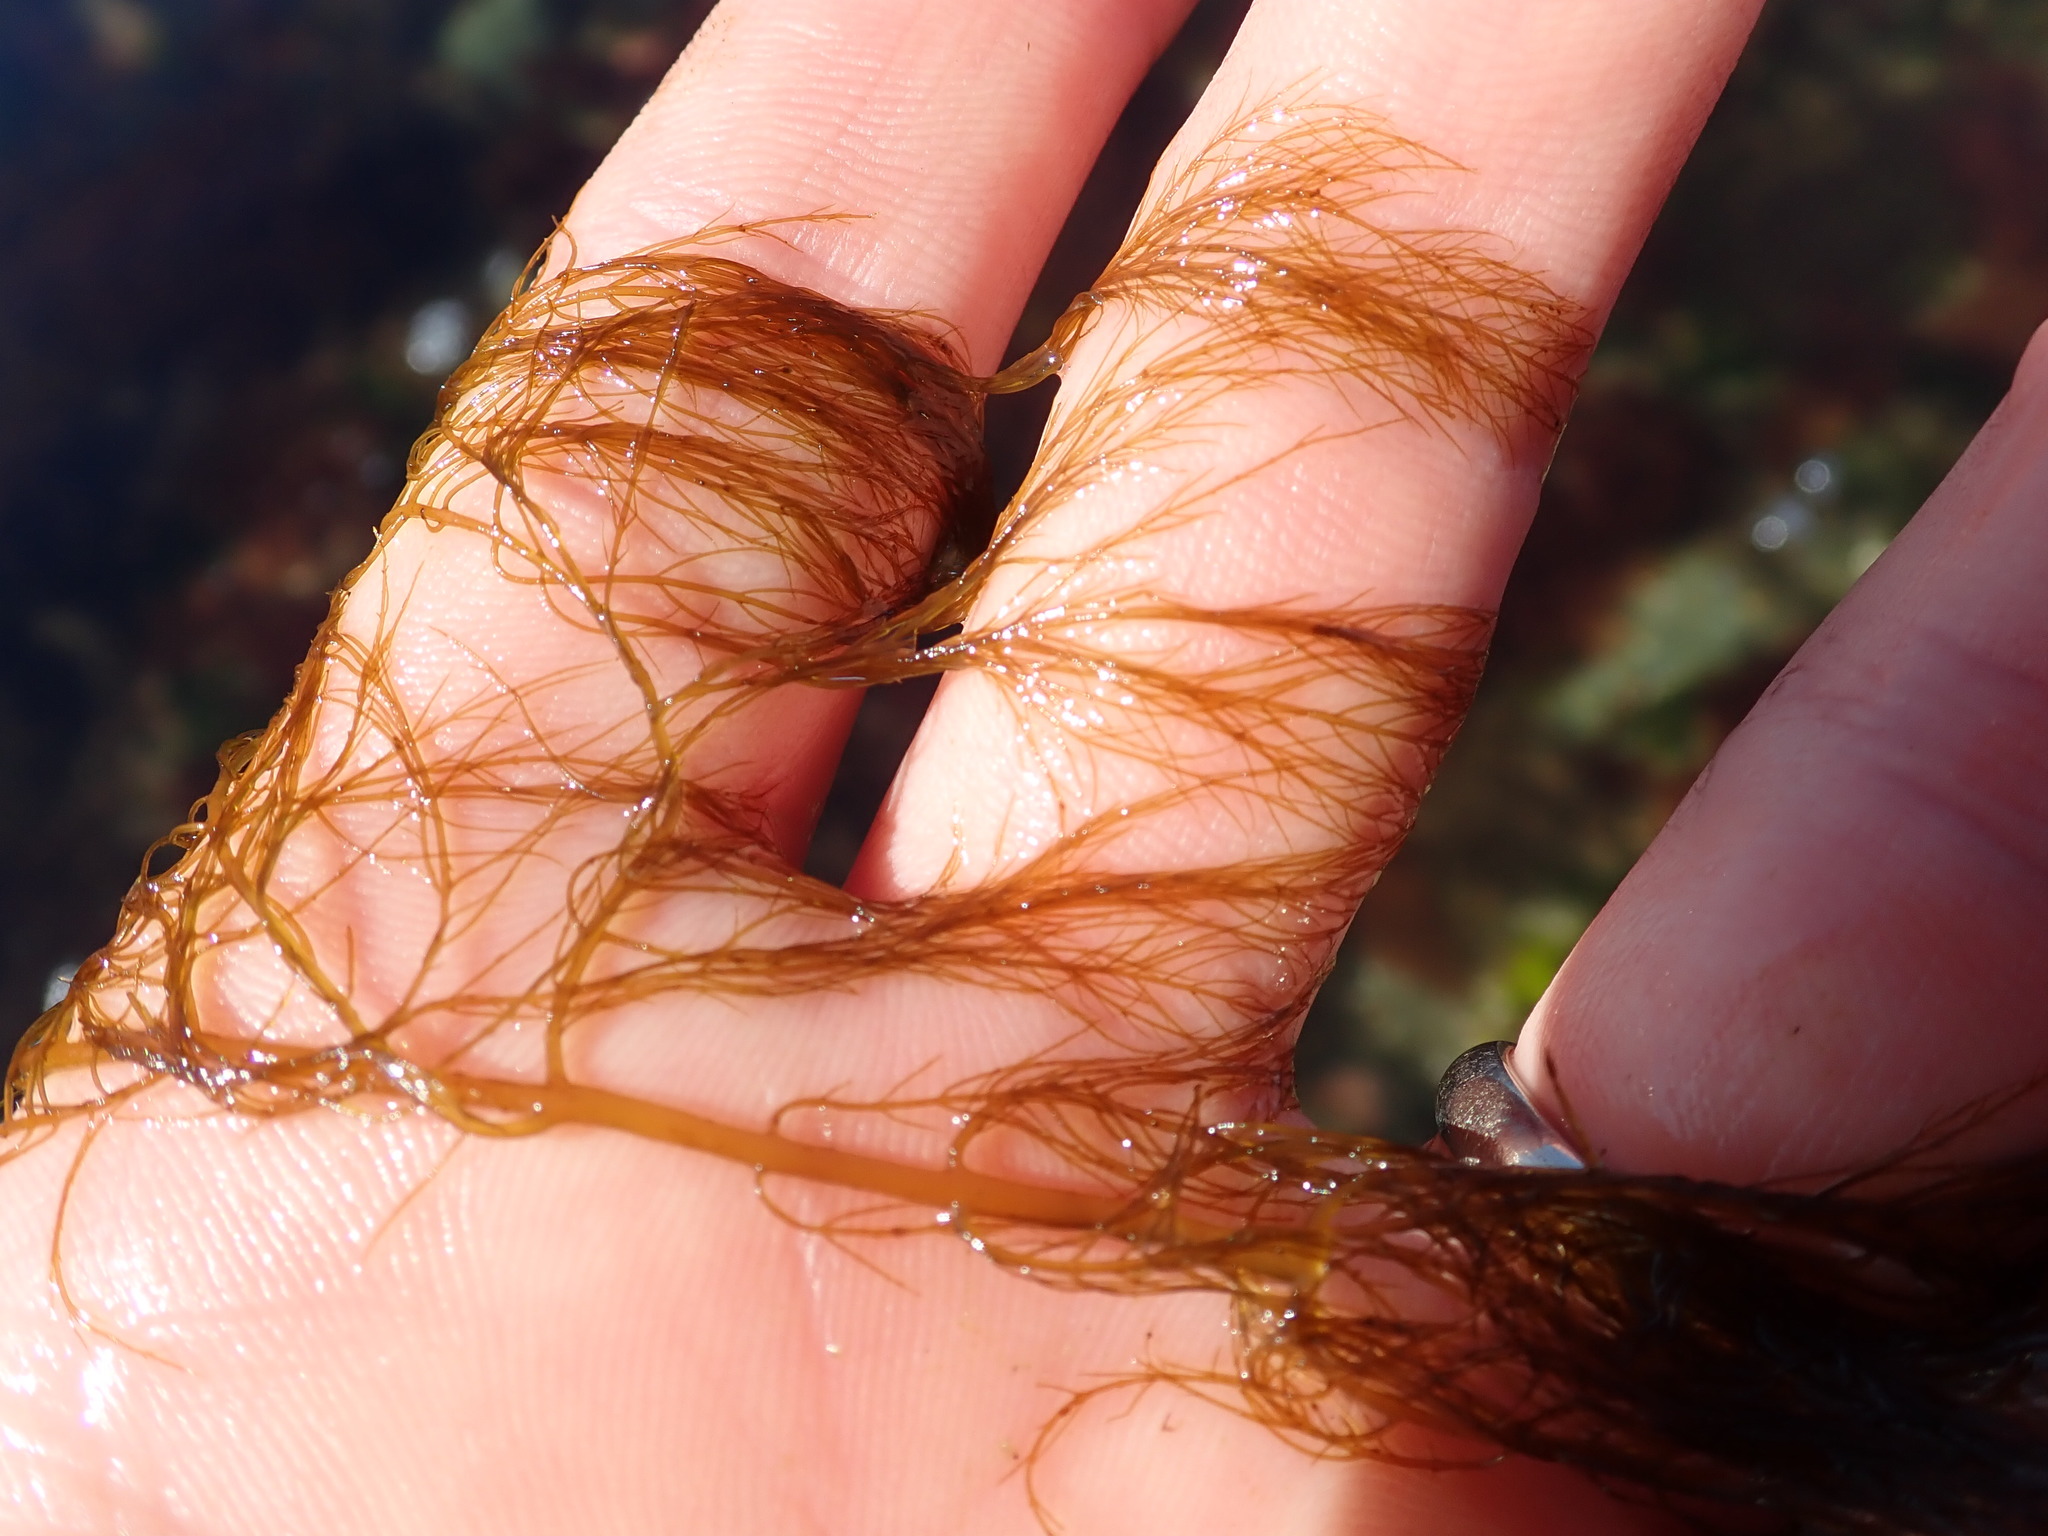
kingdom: Chromista
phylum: Ochrophyta
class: Phaeophyceae
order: Desmarestiales
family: Desmarestiaceae
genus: Desmarestia
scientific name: Desmarestia viridis
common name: Stringy acid kelp
